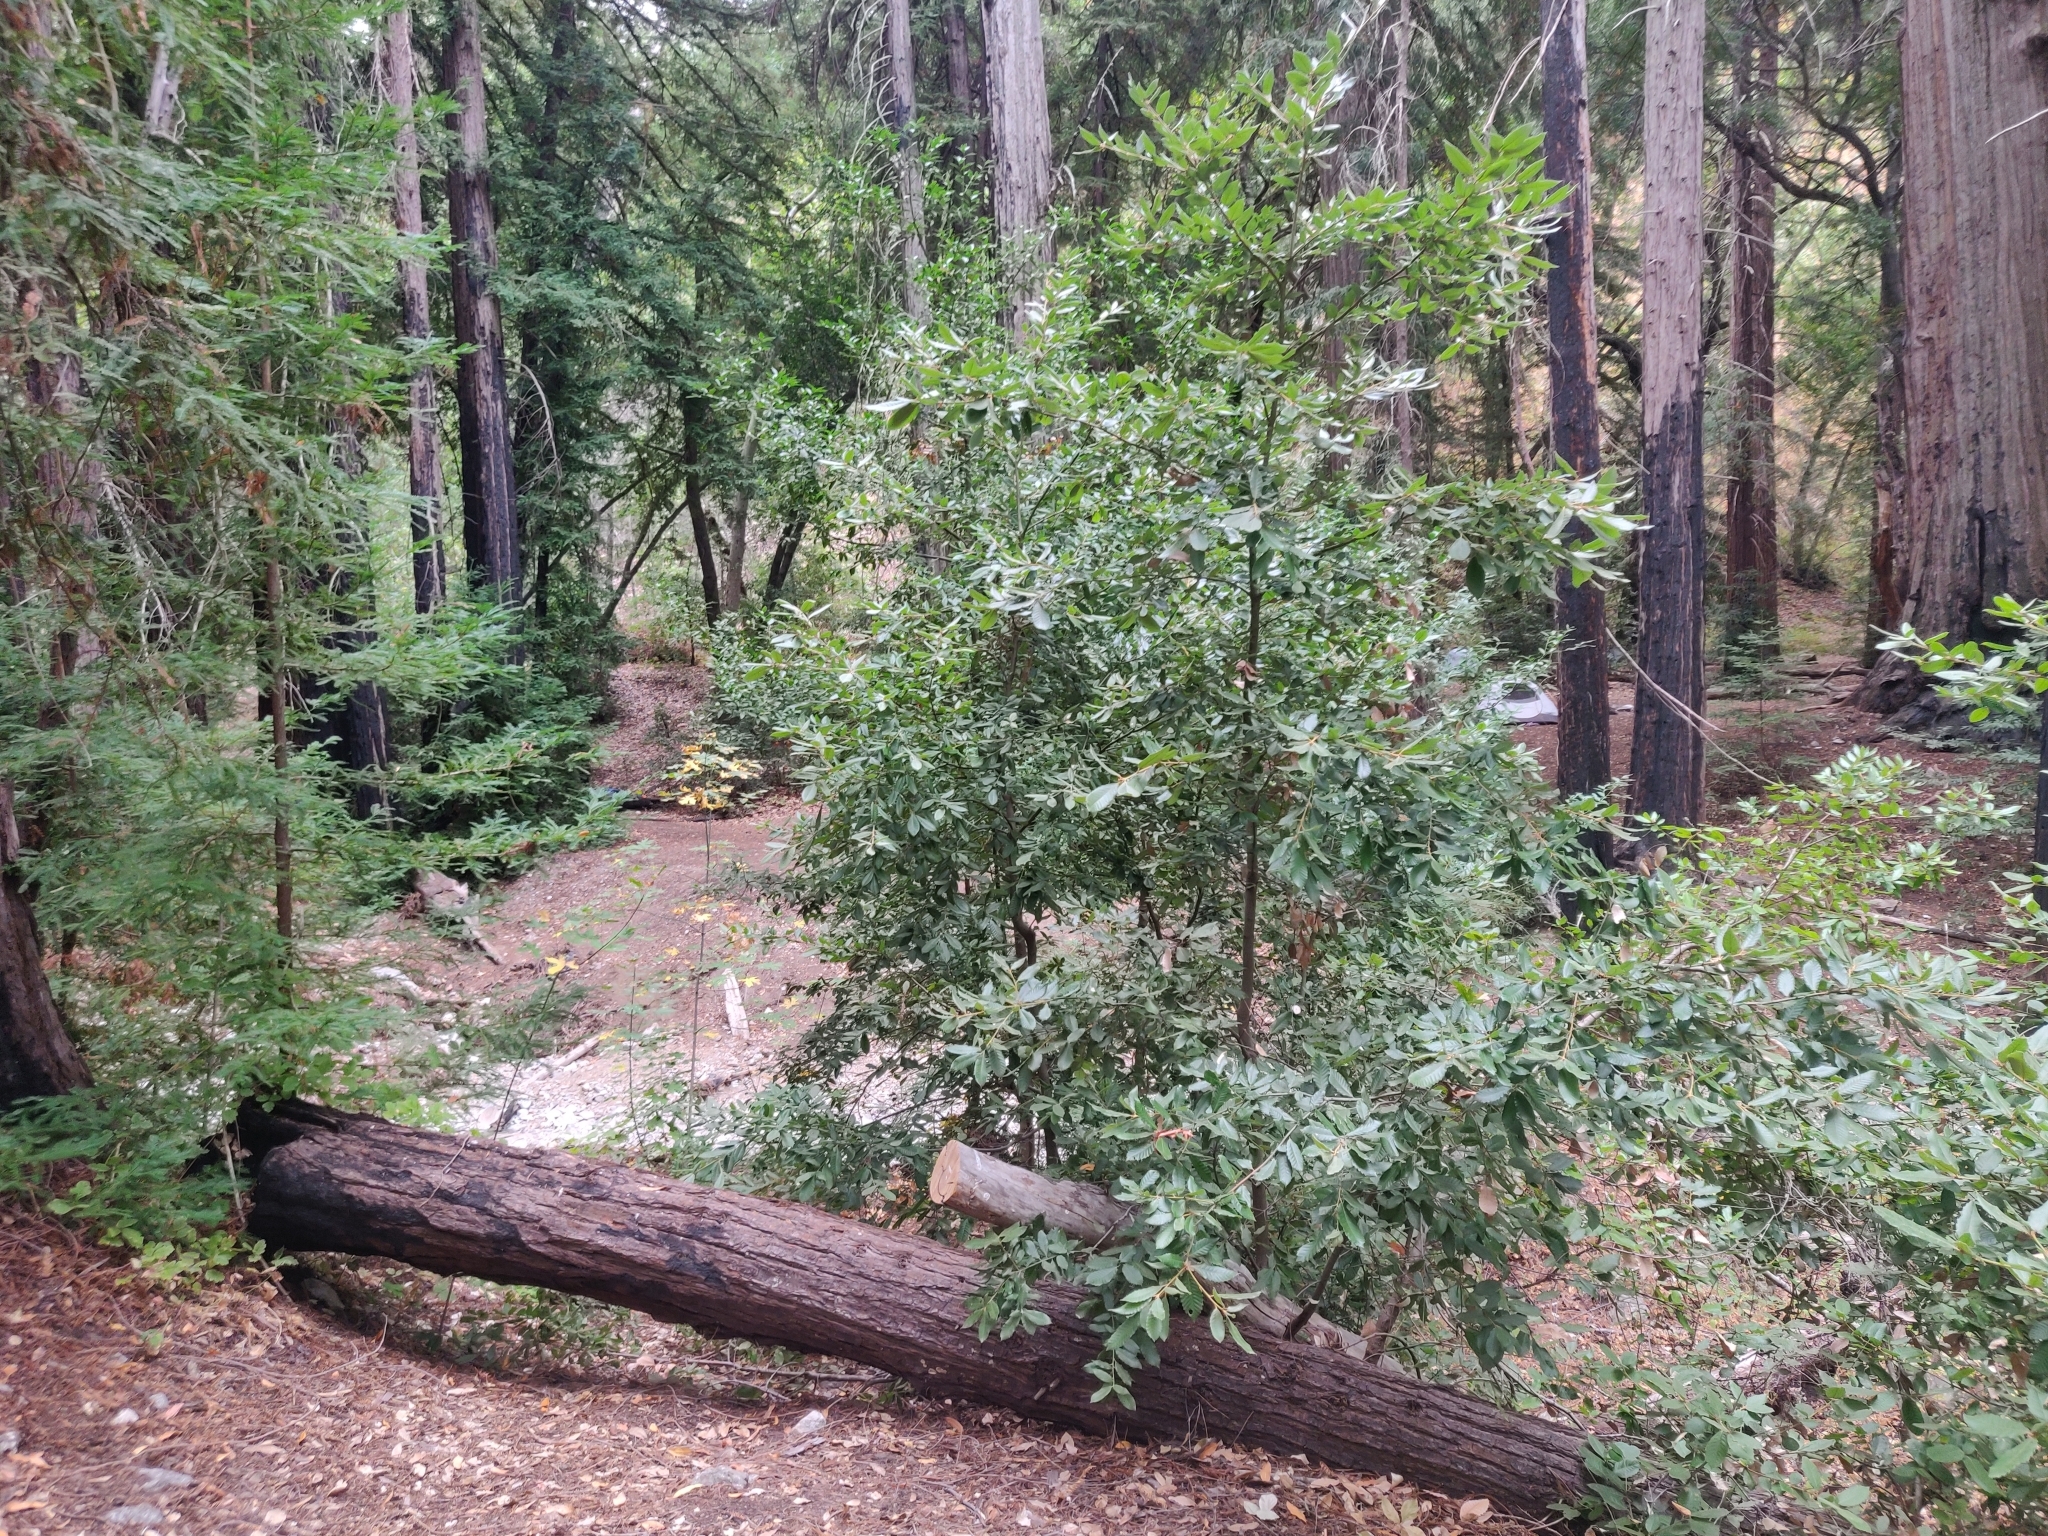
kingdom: Plantae
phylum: Tracheophyta
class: Magnoliopsida
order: Fagales
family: Fagaceae
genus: Notholithocarpus
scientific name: Notholithocarpus densiflorus
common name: Tan bark oak
